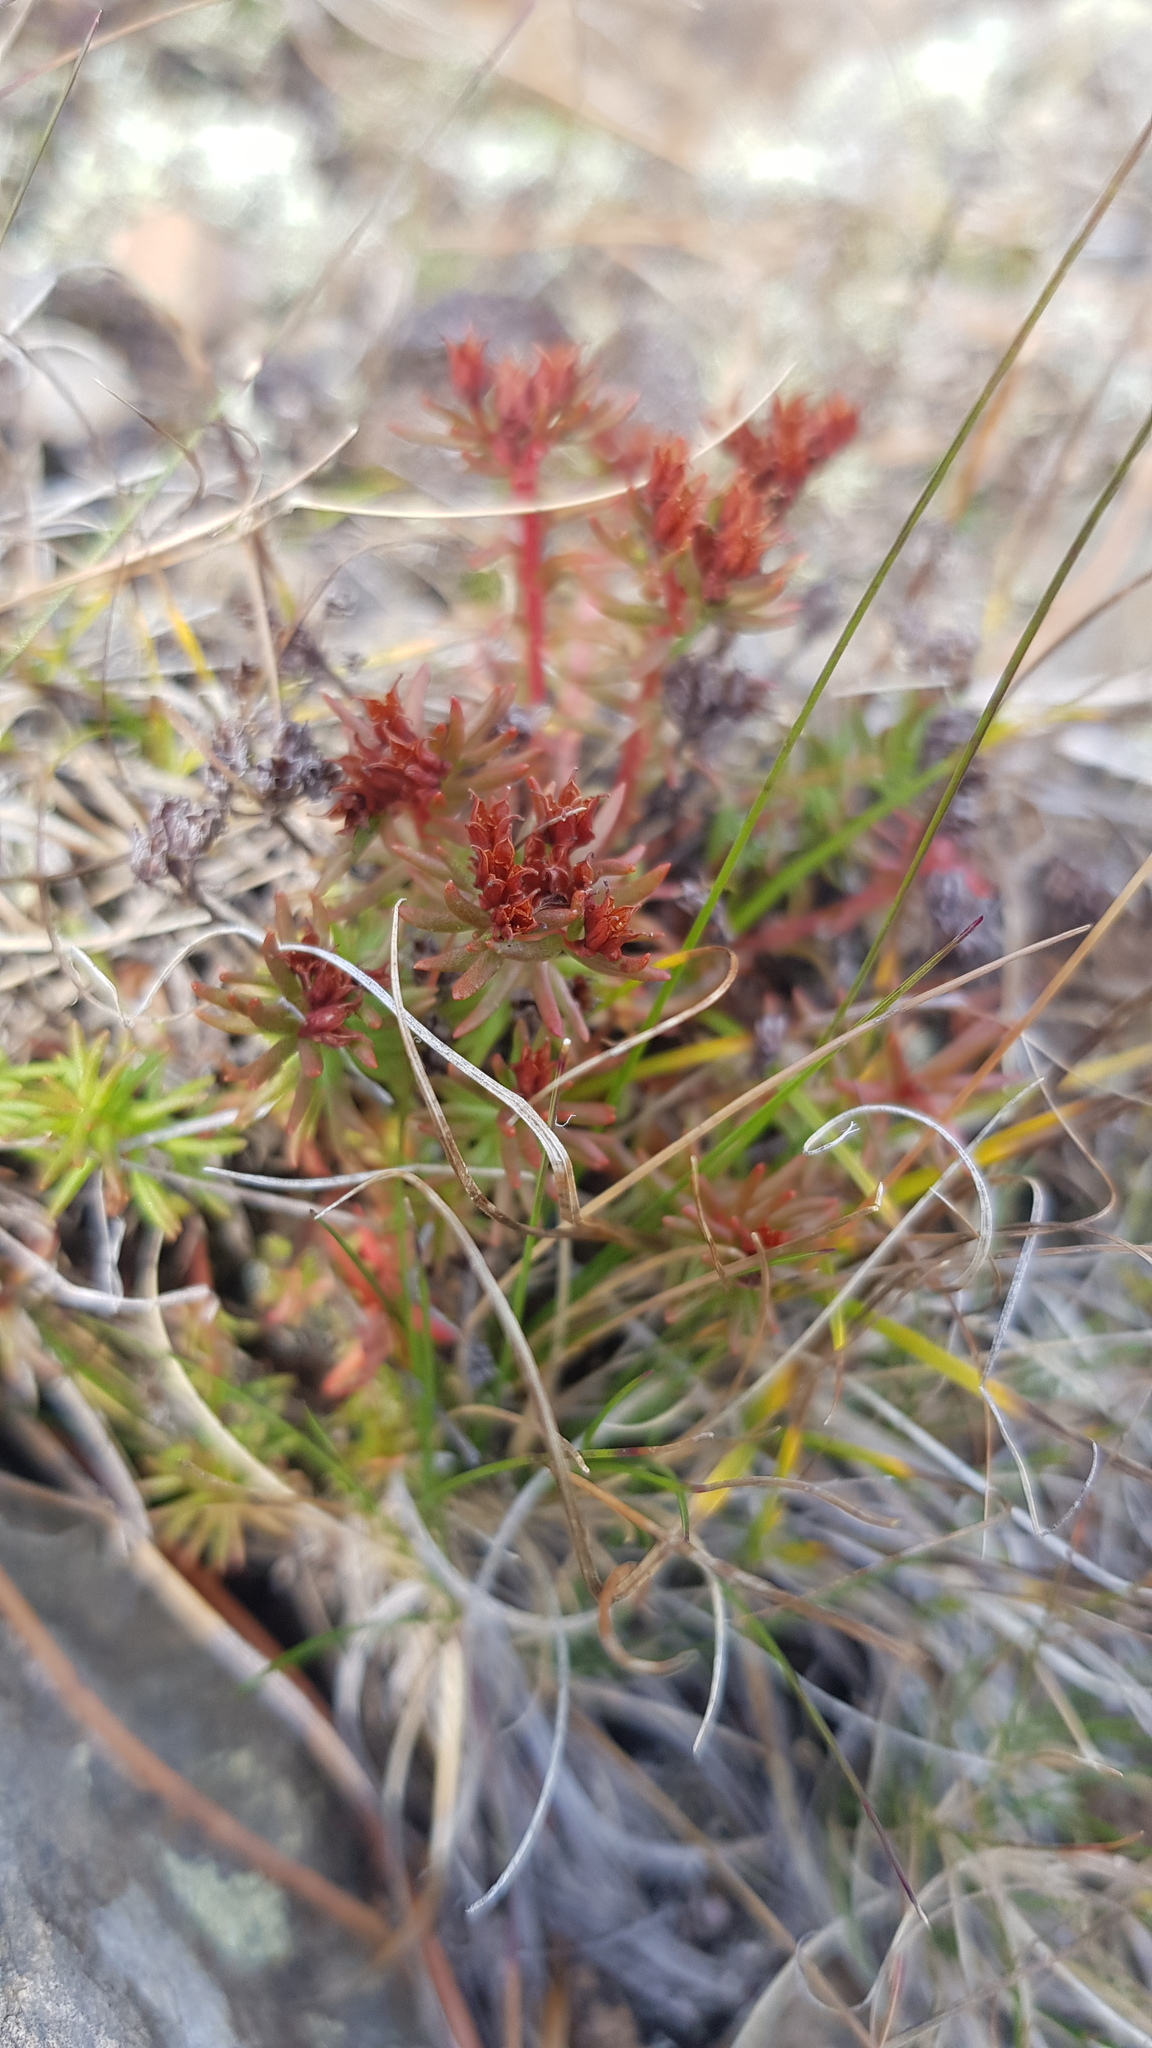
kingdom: Plantae
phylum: Tracheophyta
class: Magnoliopsida
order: Saxifragales
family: Crassulaceae
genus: Rhodiola
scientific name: Rhodiola quadrifida
